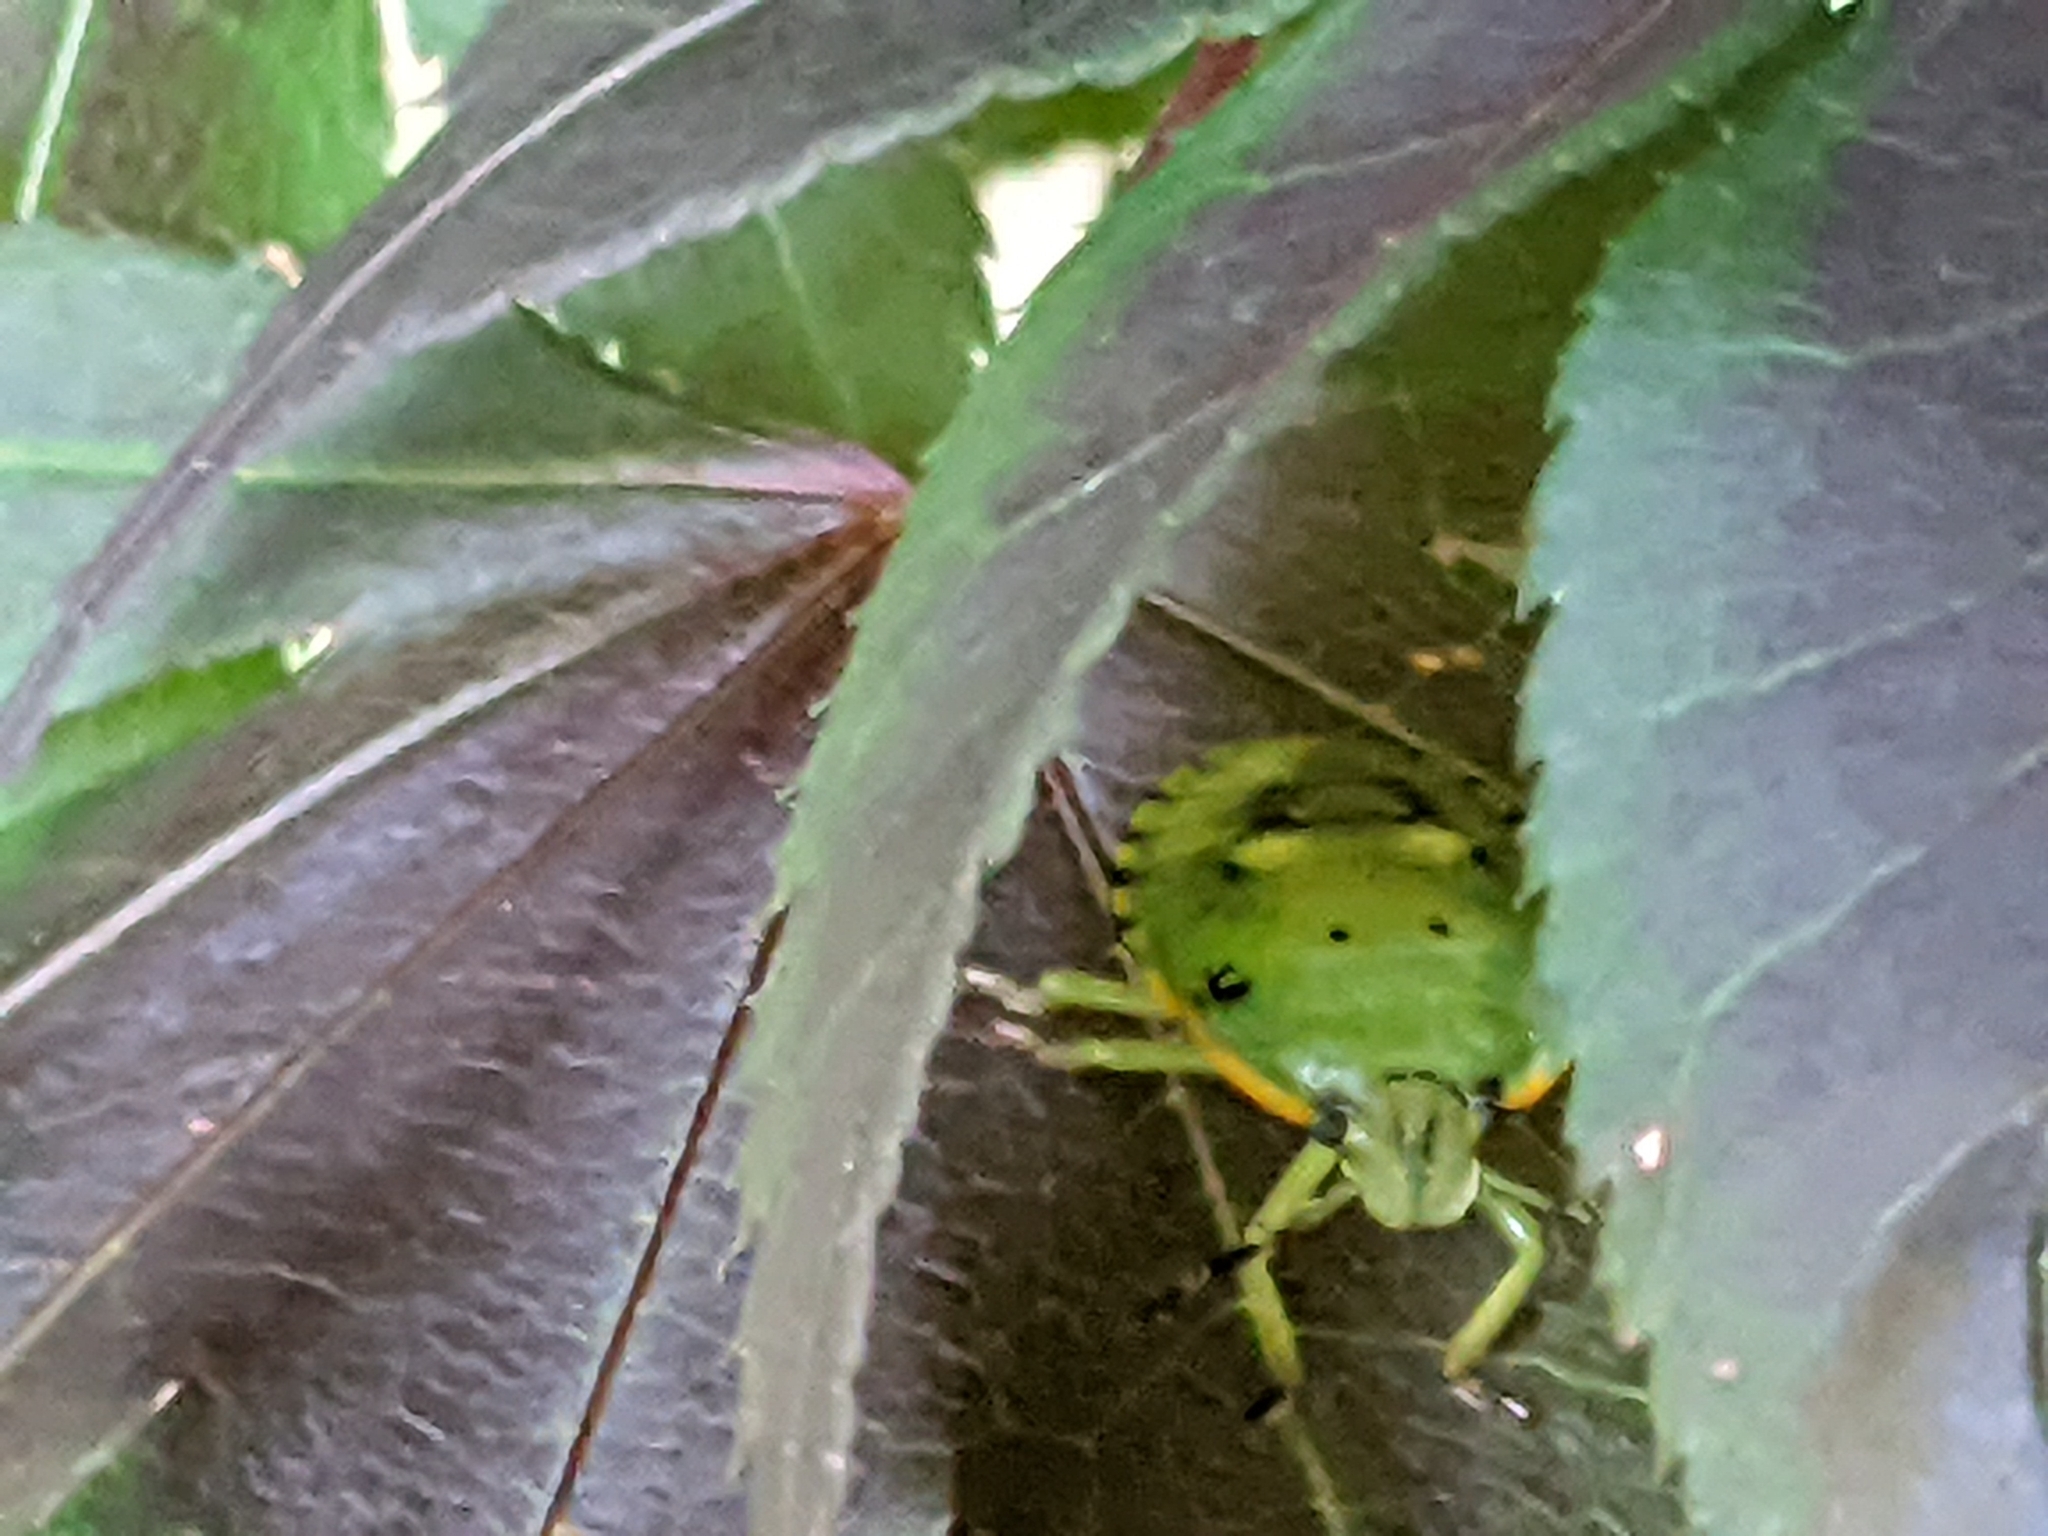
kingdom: Animalia
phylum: Arthropoda
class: Insecta
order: Hemiptera
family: Pentatomidae
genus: Chinavia
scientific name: Chinavia hilaris
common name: Green stink bug
